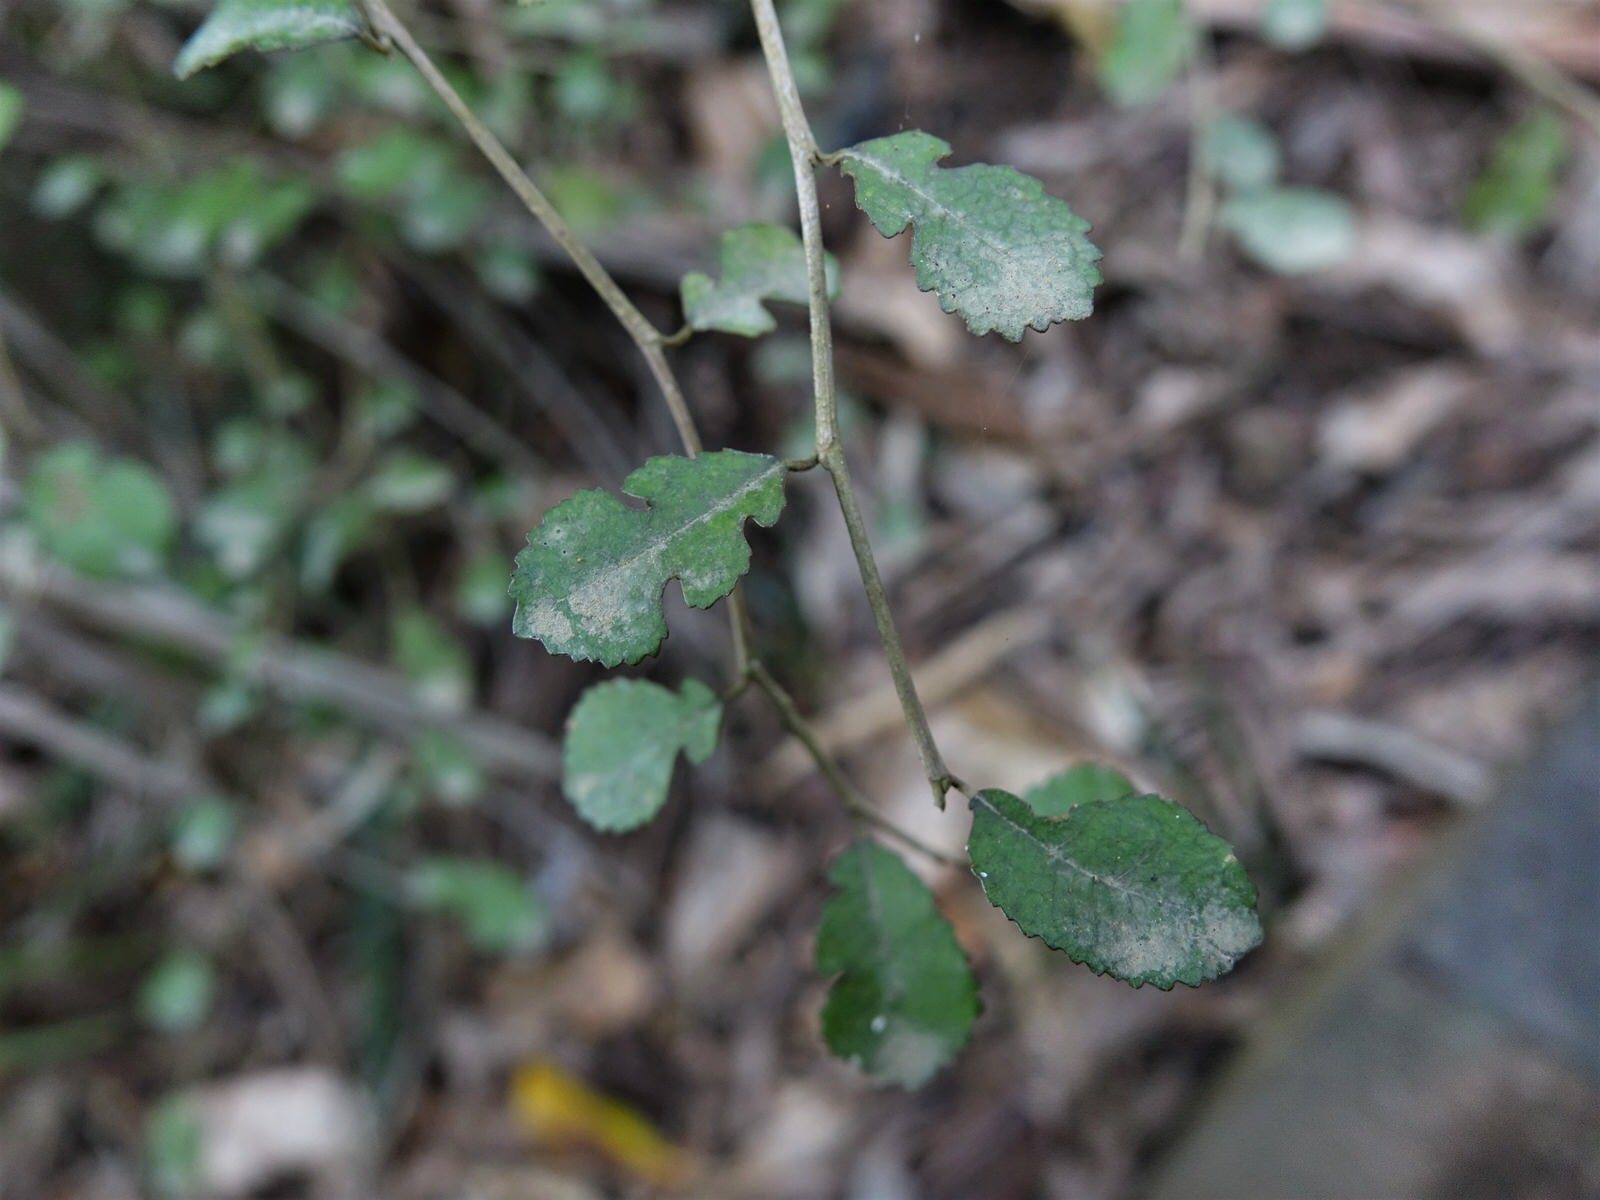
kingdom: Plantae
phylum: Tracheophyta
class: Magnoliopsida
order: Rosales
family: Moraceae
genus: Paratrophis
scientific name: Paratrophis microphylla
